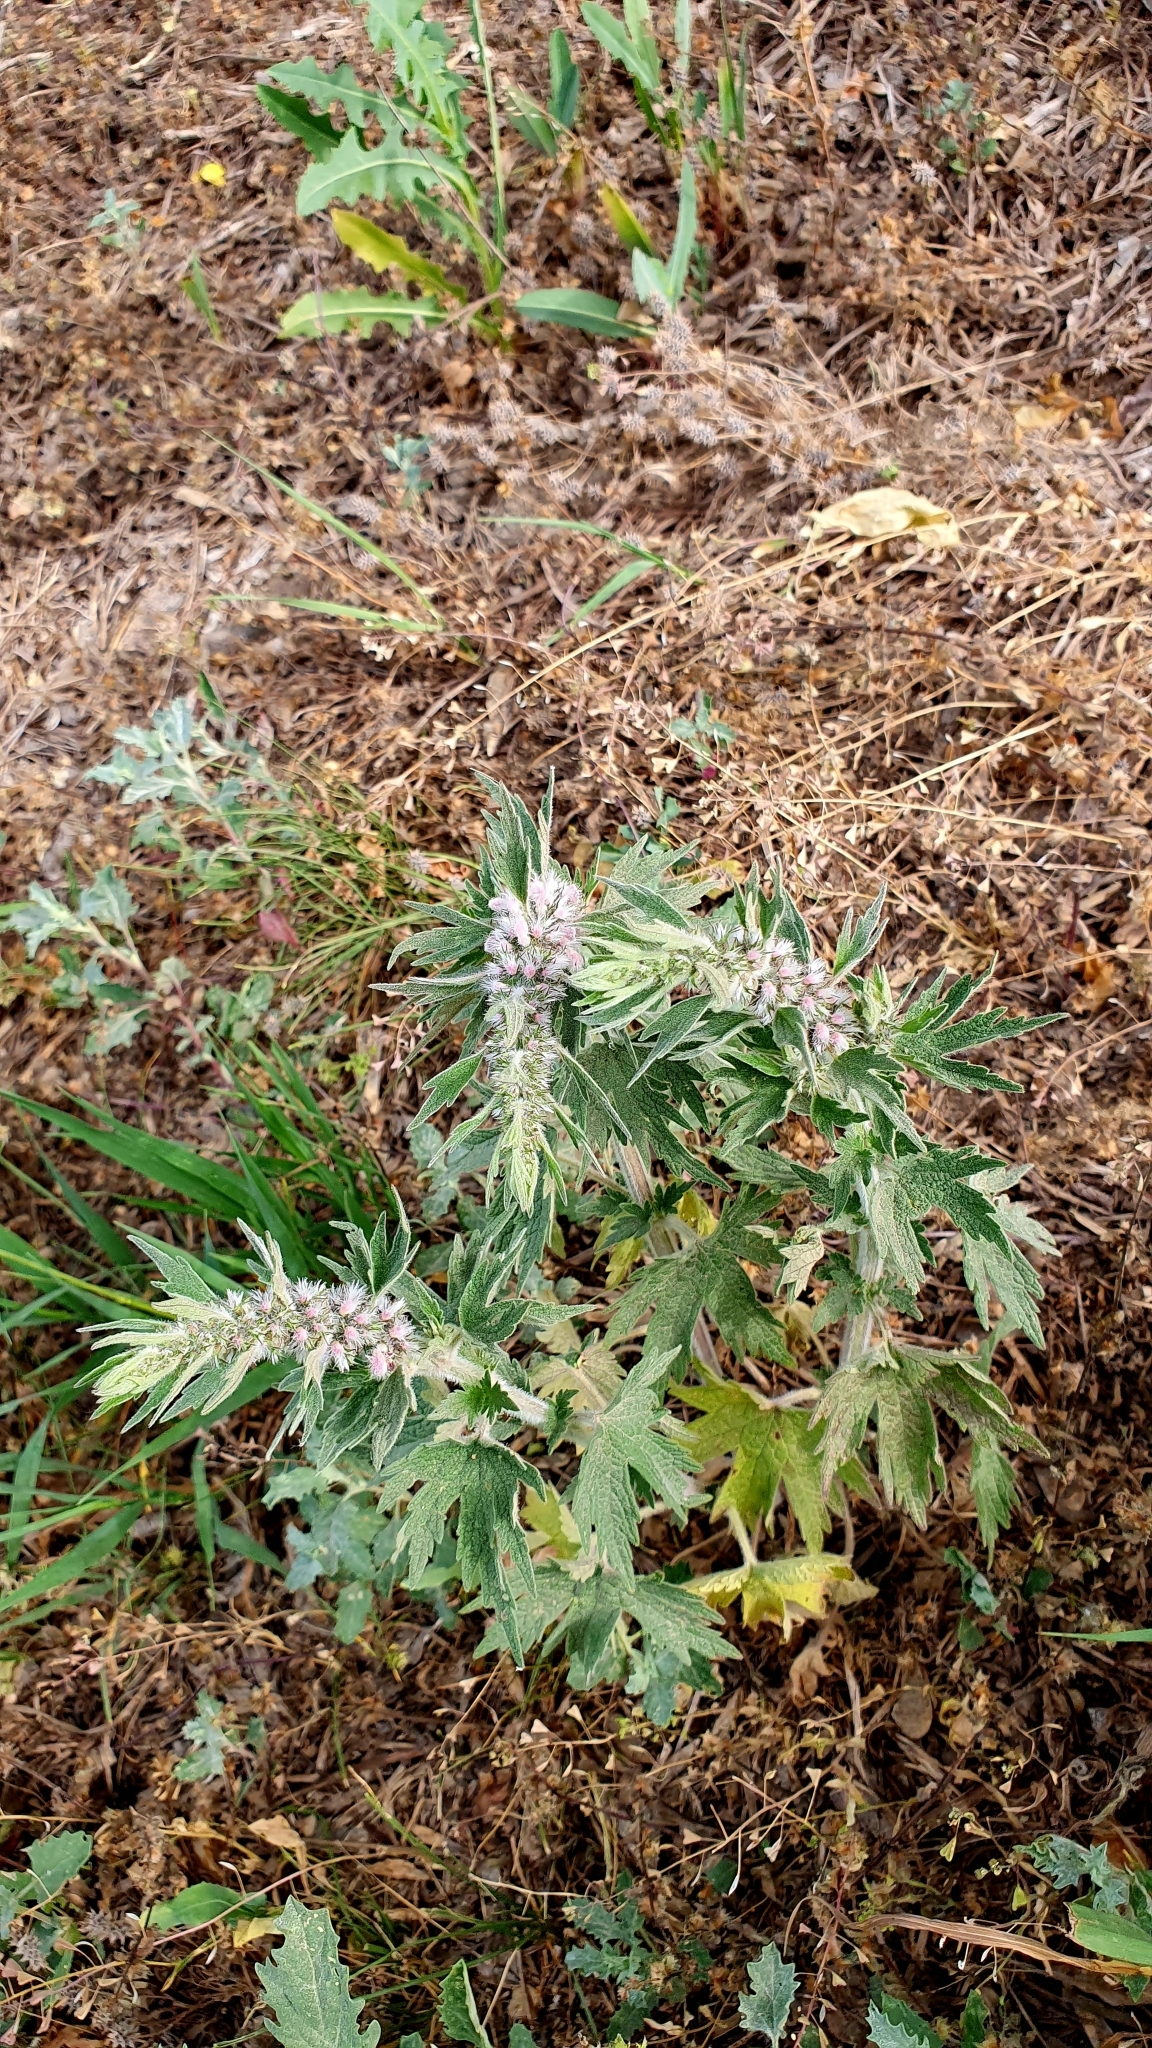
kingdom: Plantae
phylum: Tracheophyta
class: Magnoliopsida
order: Lamiales
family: Lamiaceae
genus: Leonurus
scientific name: Leonurus quinquelobatus
